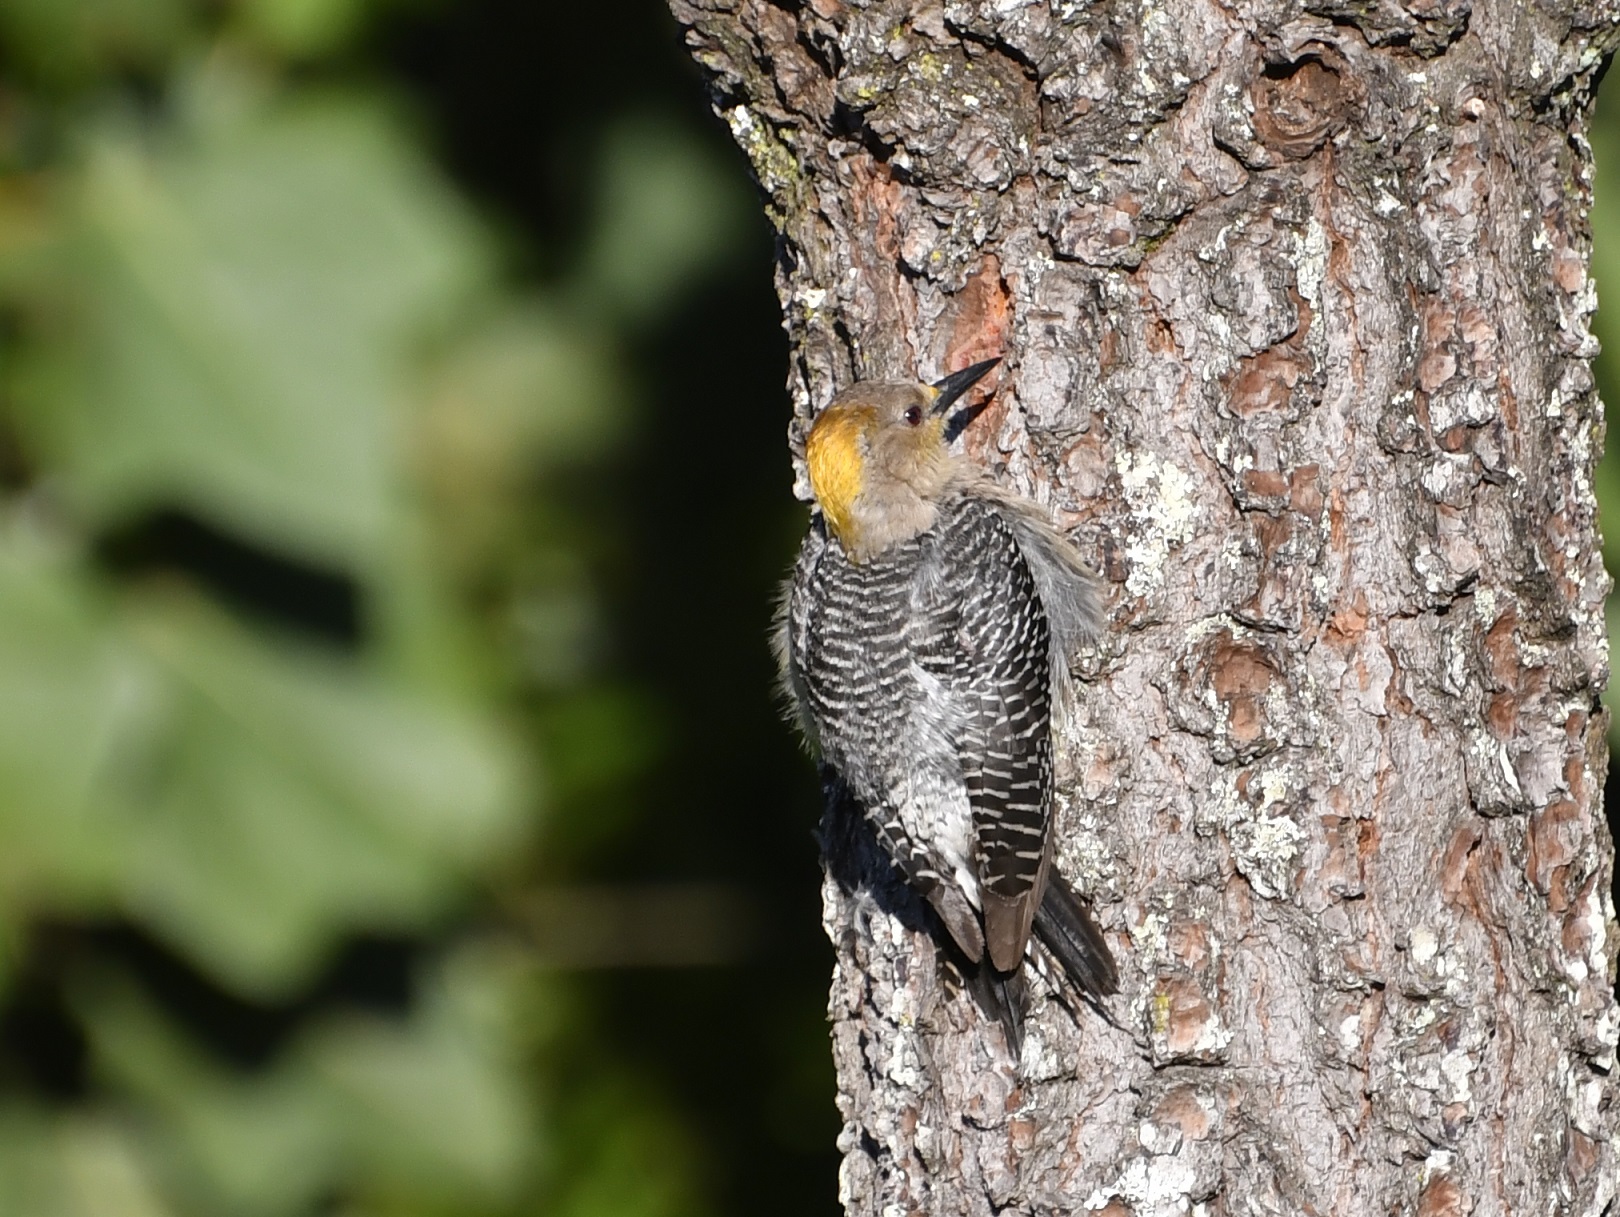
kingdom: Animalia
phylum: Chordata
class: Aves
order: Piciformes
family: Picidae
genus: Melanerpes
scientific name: Melanerpes aurifrons
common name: Golden-fronted woodpecker
